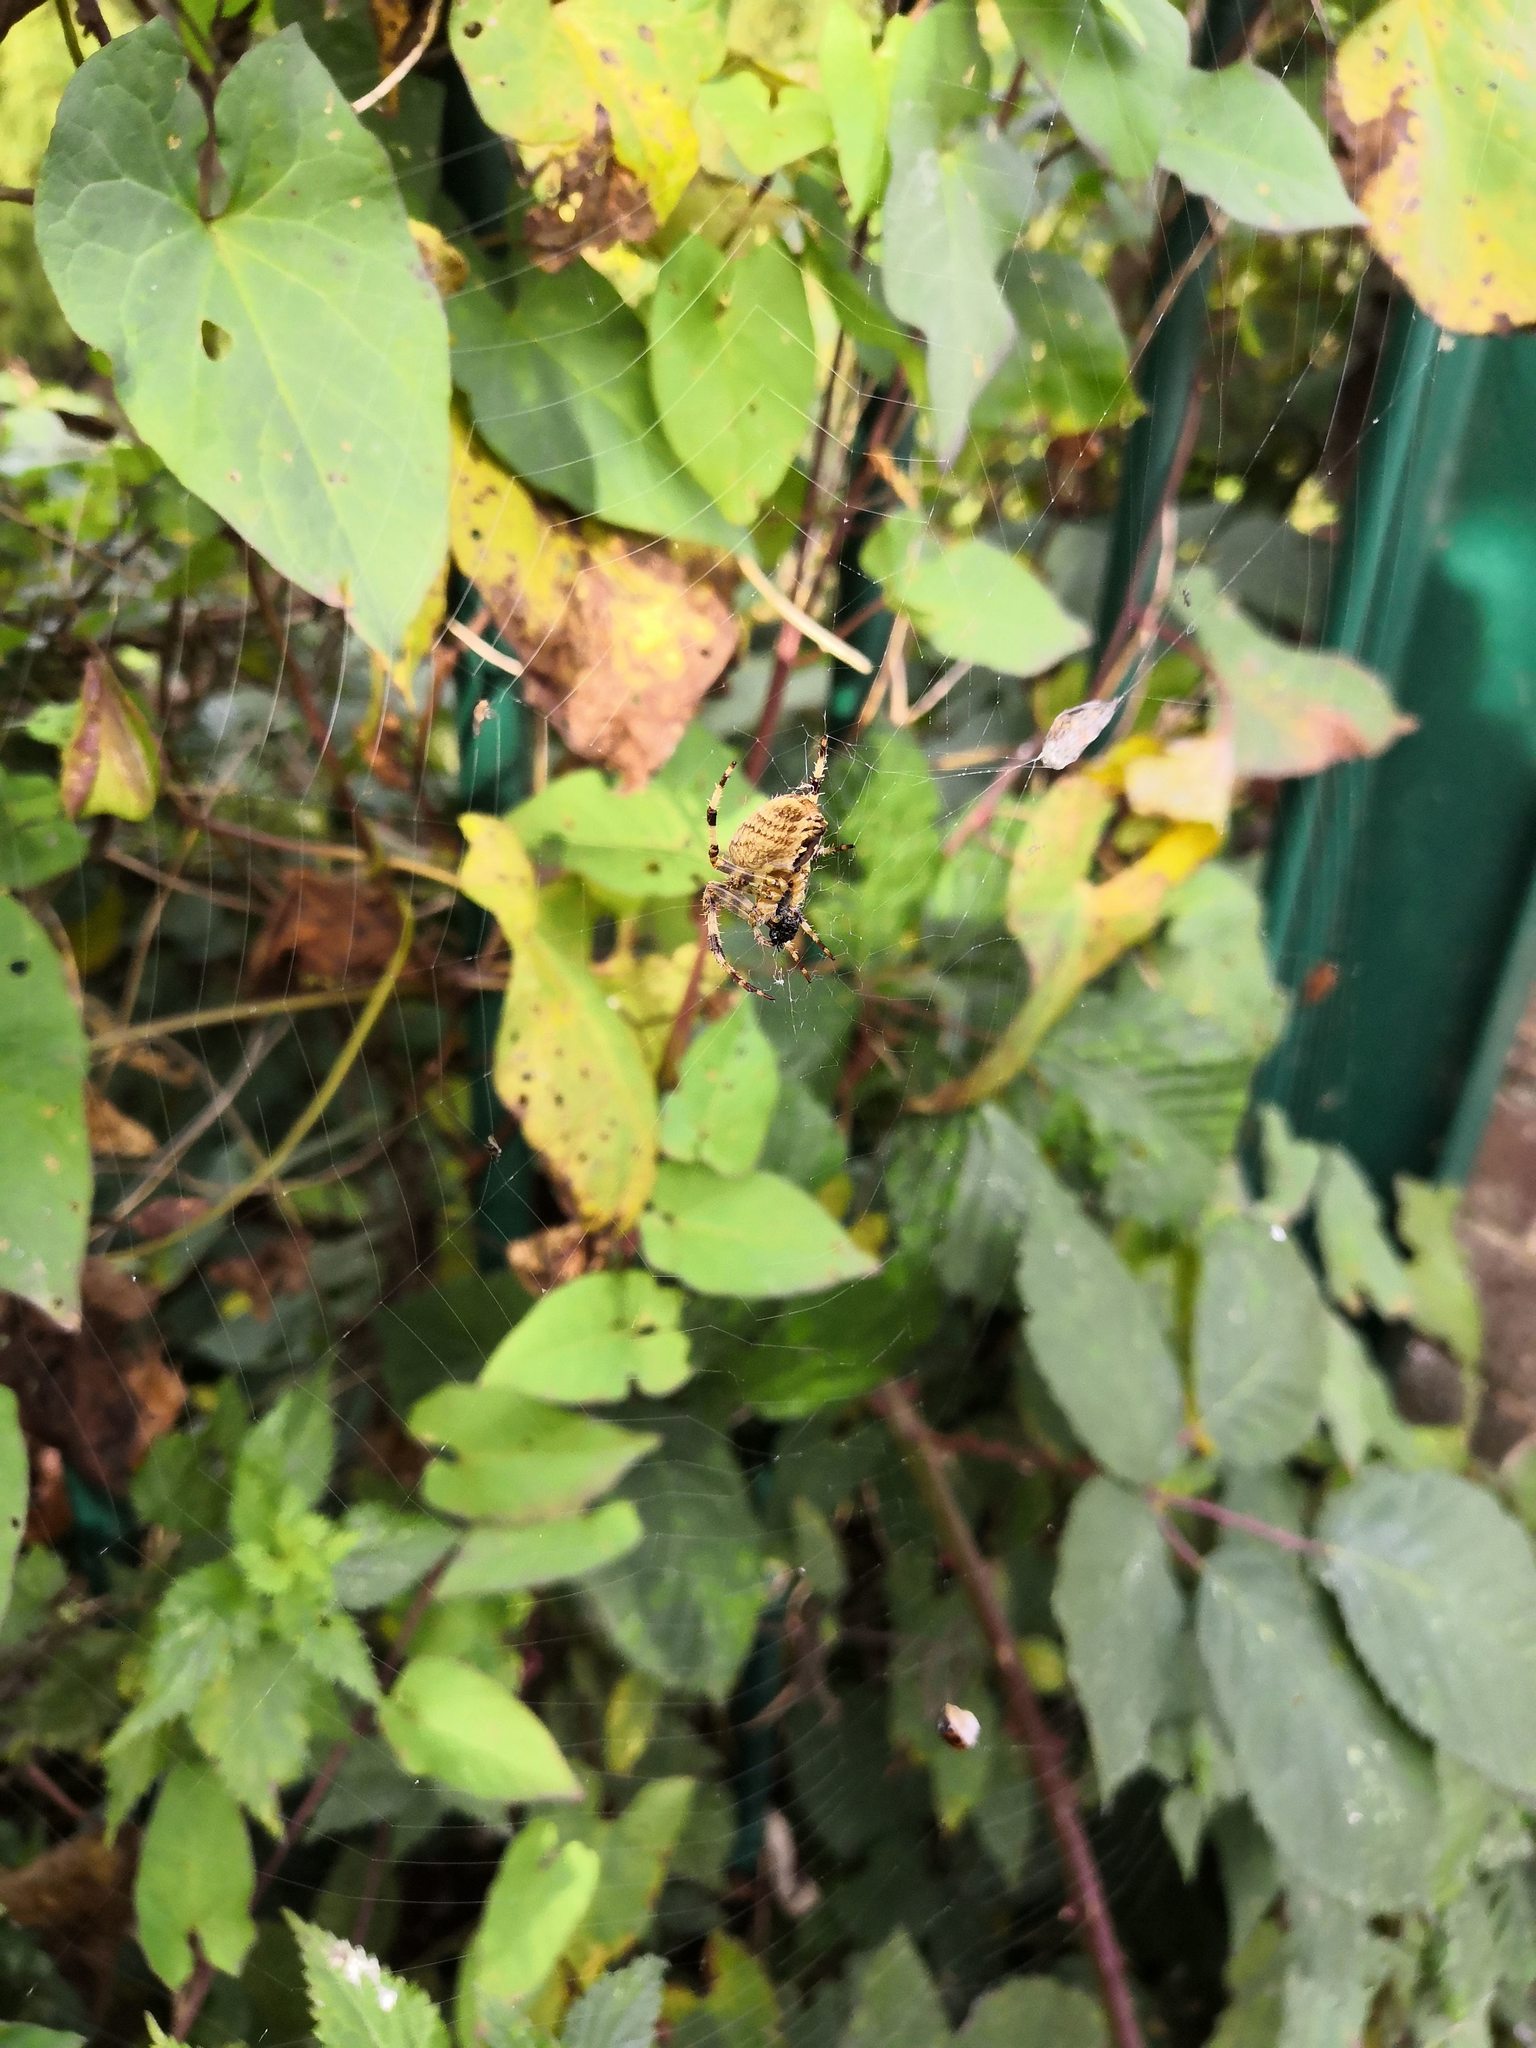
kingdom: Animalia
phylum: Arthropoda
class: Arachnida
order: Araneae
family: Araneidae
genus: Araneus
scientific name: Araneus diadematus
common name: Cross orbweaver
